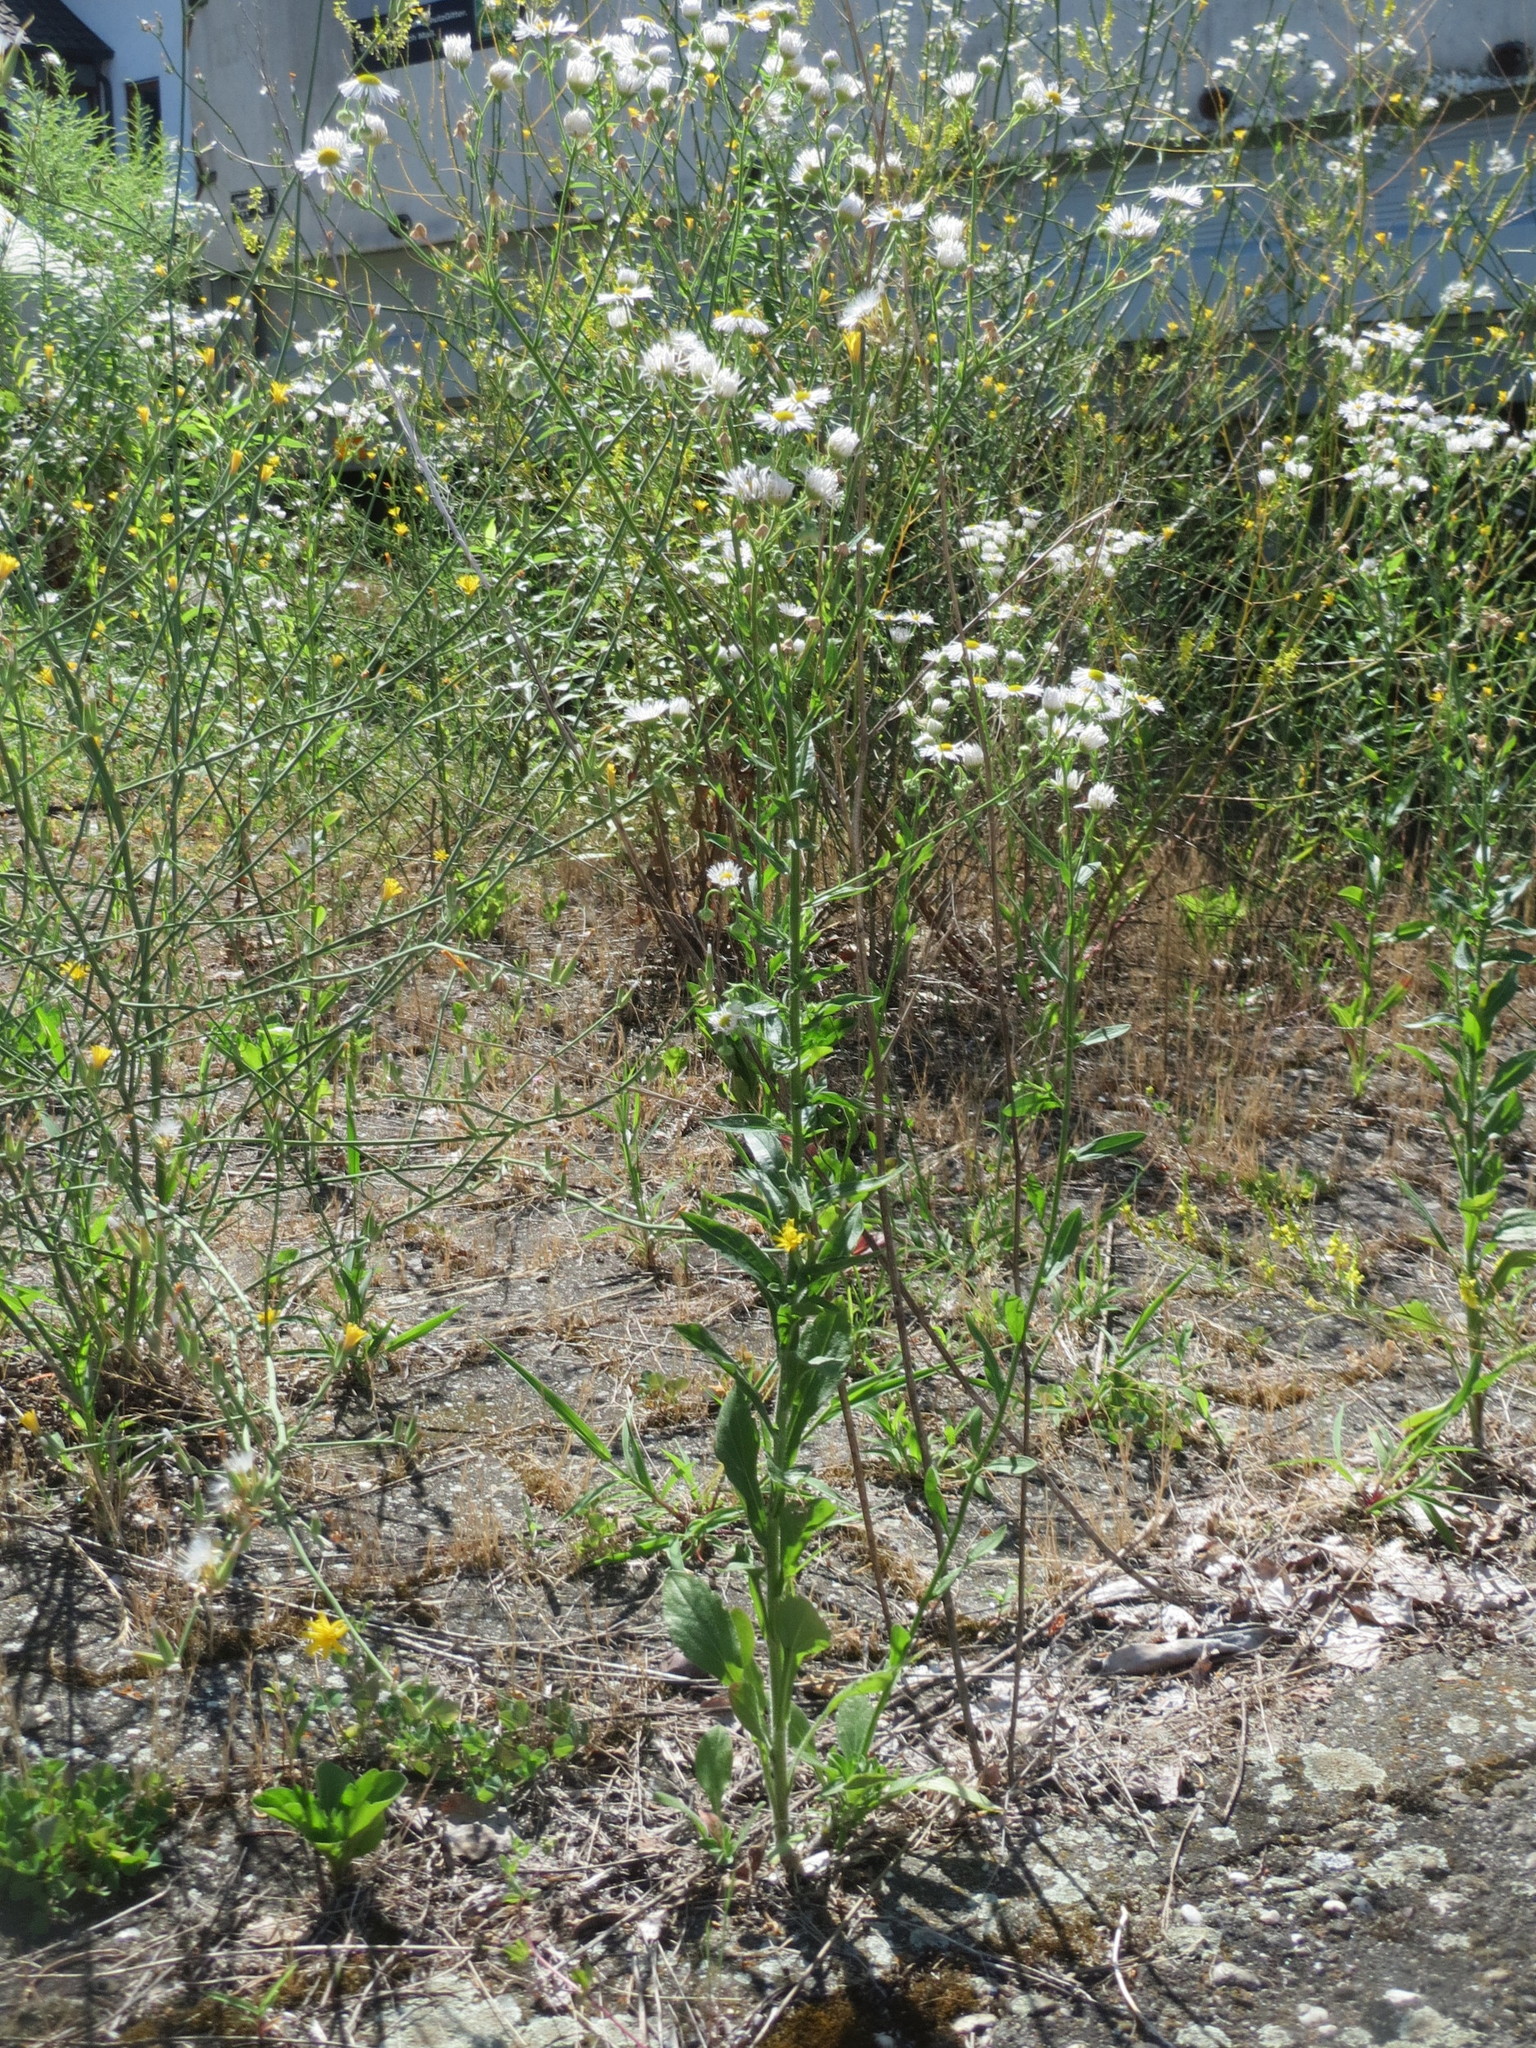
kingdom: Plantae
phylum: Tracheophyta
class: Magnoliopsida
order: Asterales
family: Asteraceae
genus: Erigeron
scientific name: Erigeron annuus
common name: Tall fleabane
